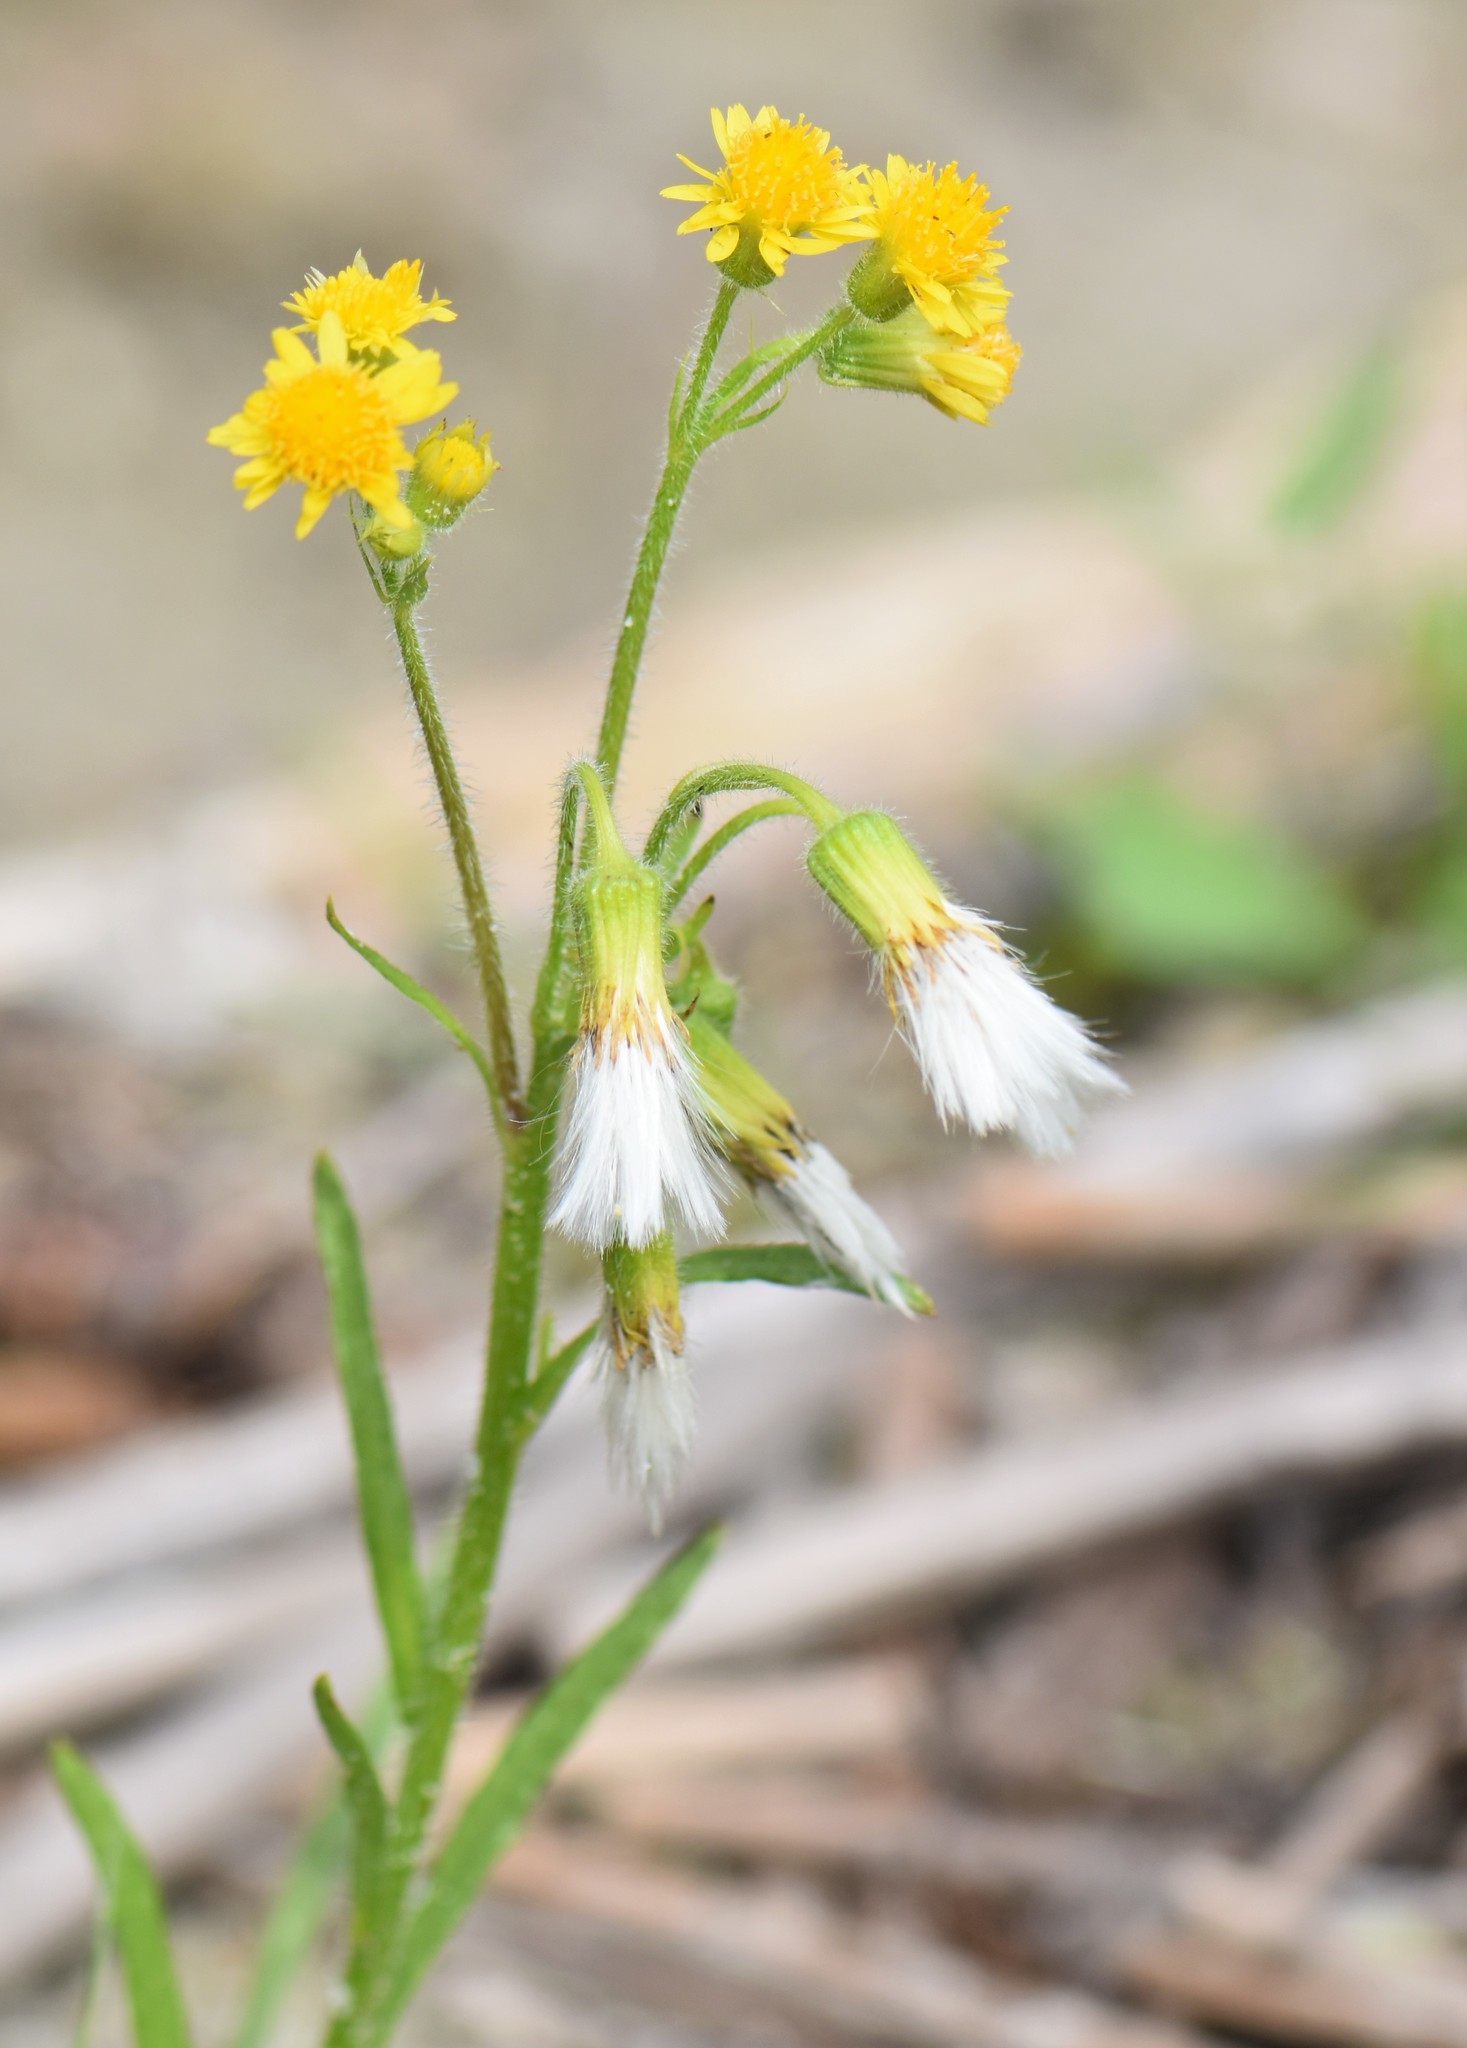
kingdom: Plantae
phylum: Tracheophyta
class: Magnoliopsida
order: Asterales
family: Asteraceae
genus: Tephroseris
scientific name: Tephroseris palustris
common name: Marsh fleawort
